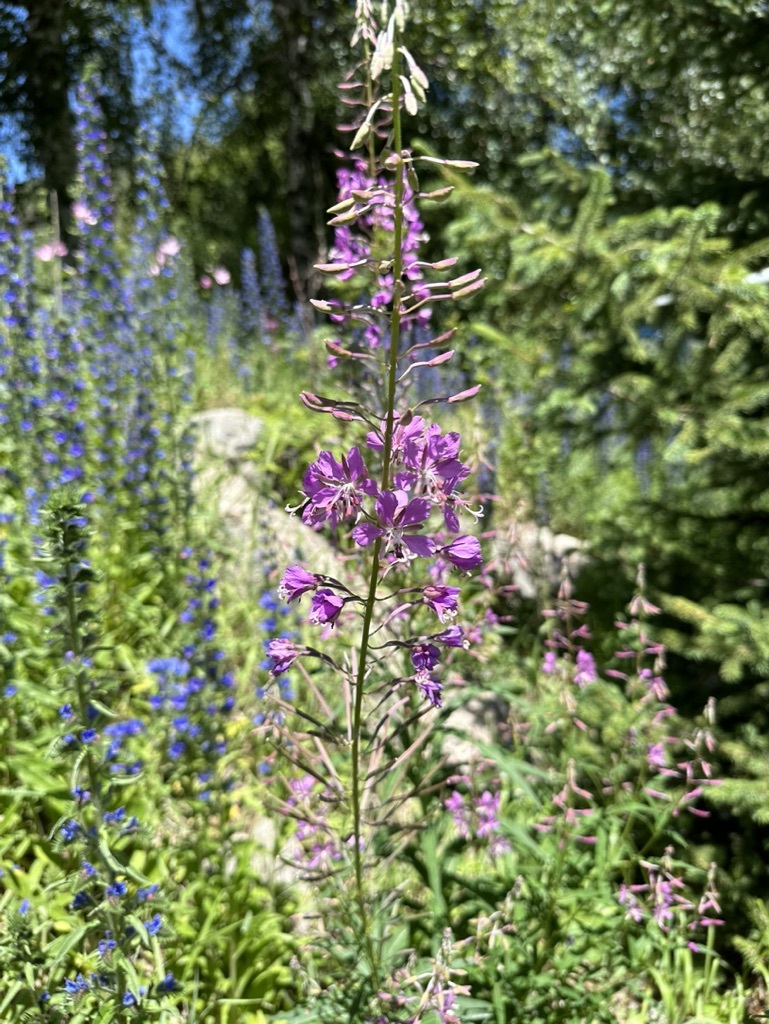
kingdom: Plantae
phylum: Tracheophyta
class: Magnoliopsida
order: Myrtales
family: Onagraceae
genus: Chamaenerion
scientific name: Chamaenerion angustifolium
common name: Fireweed
